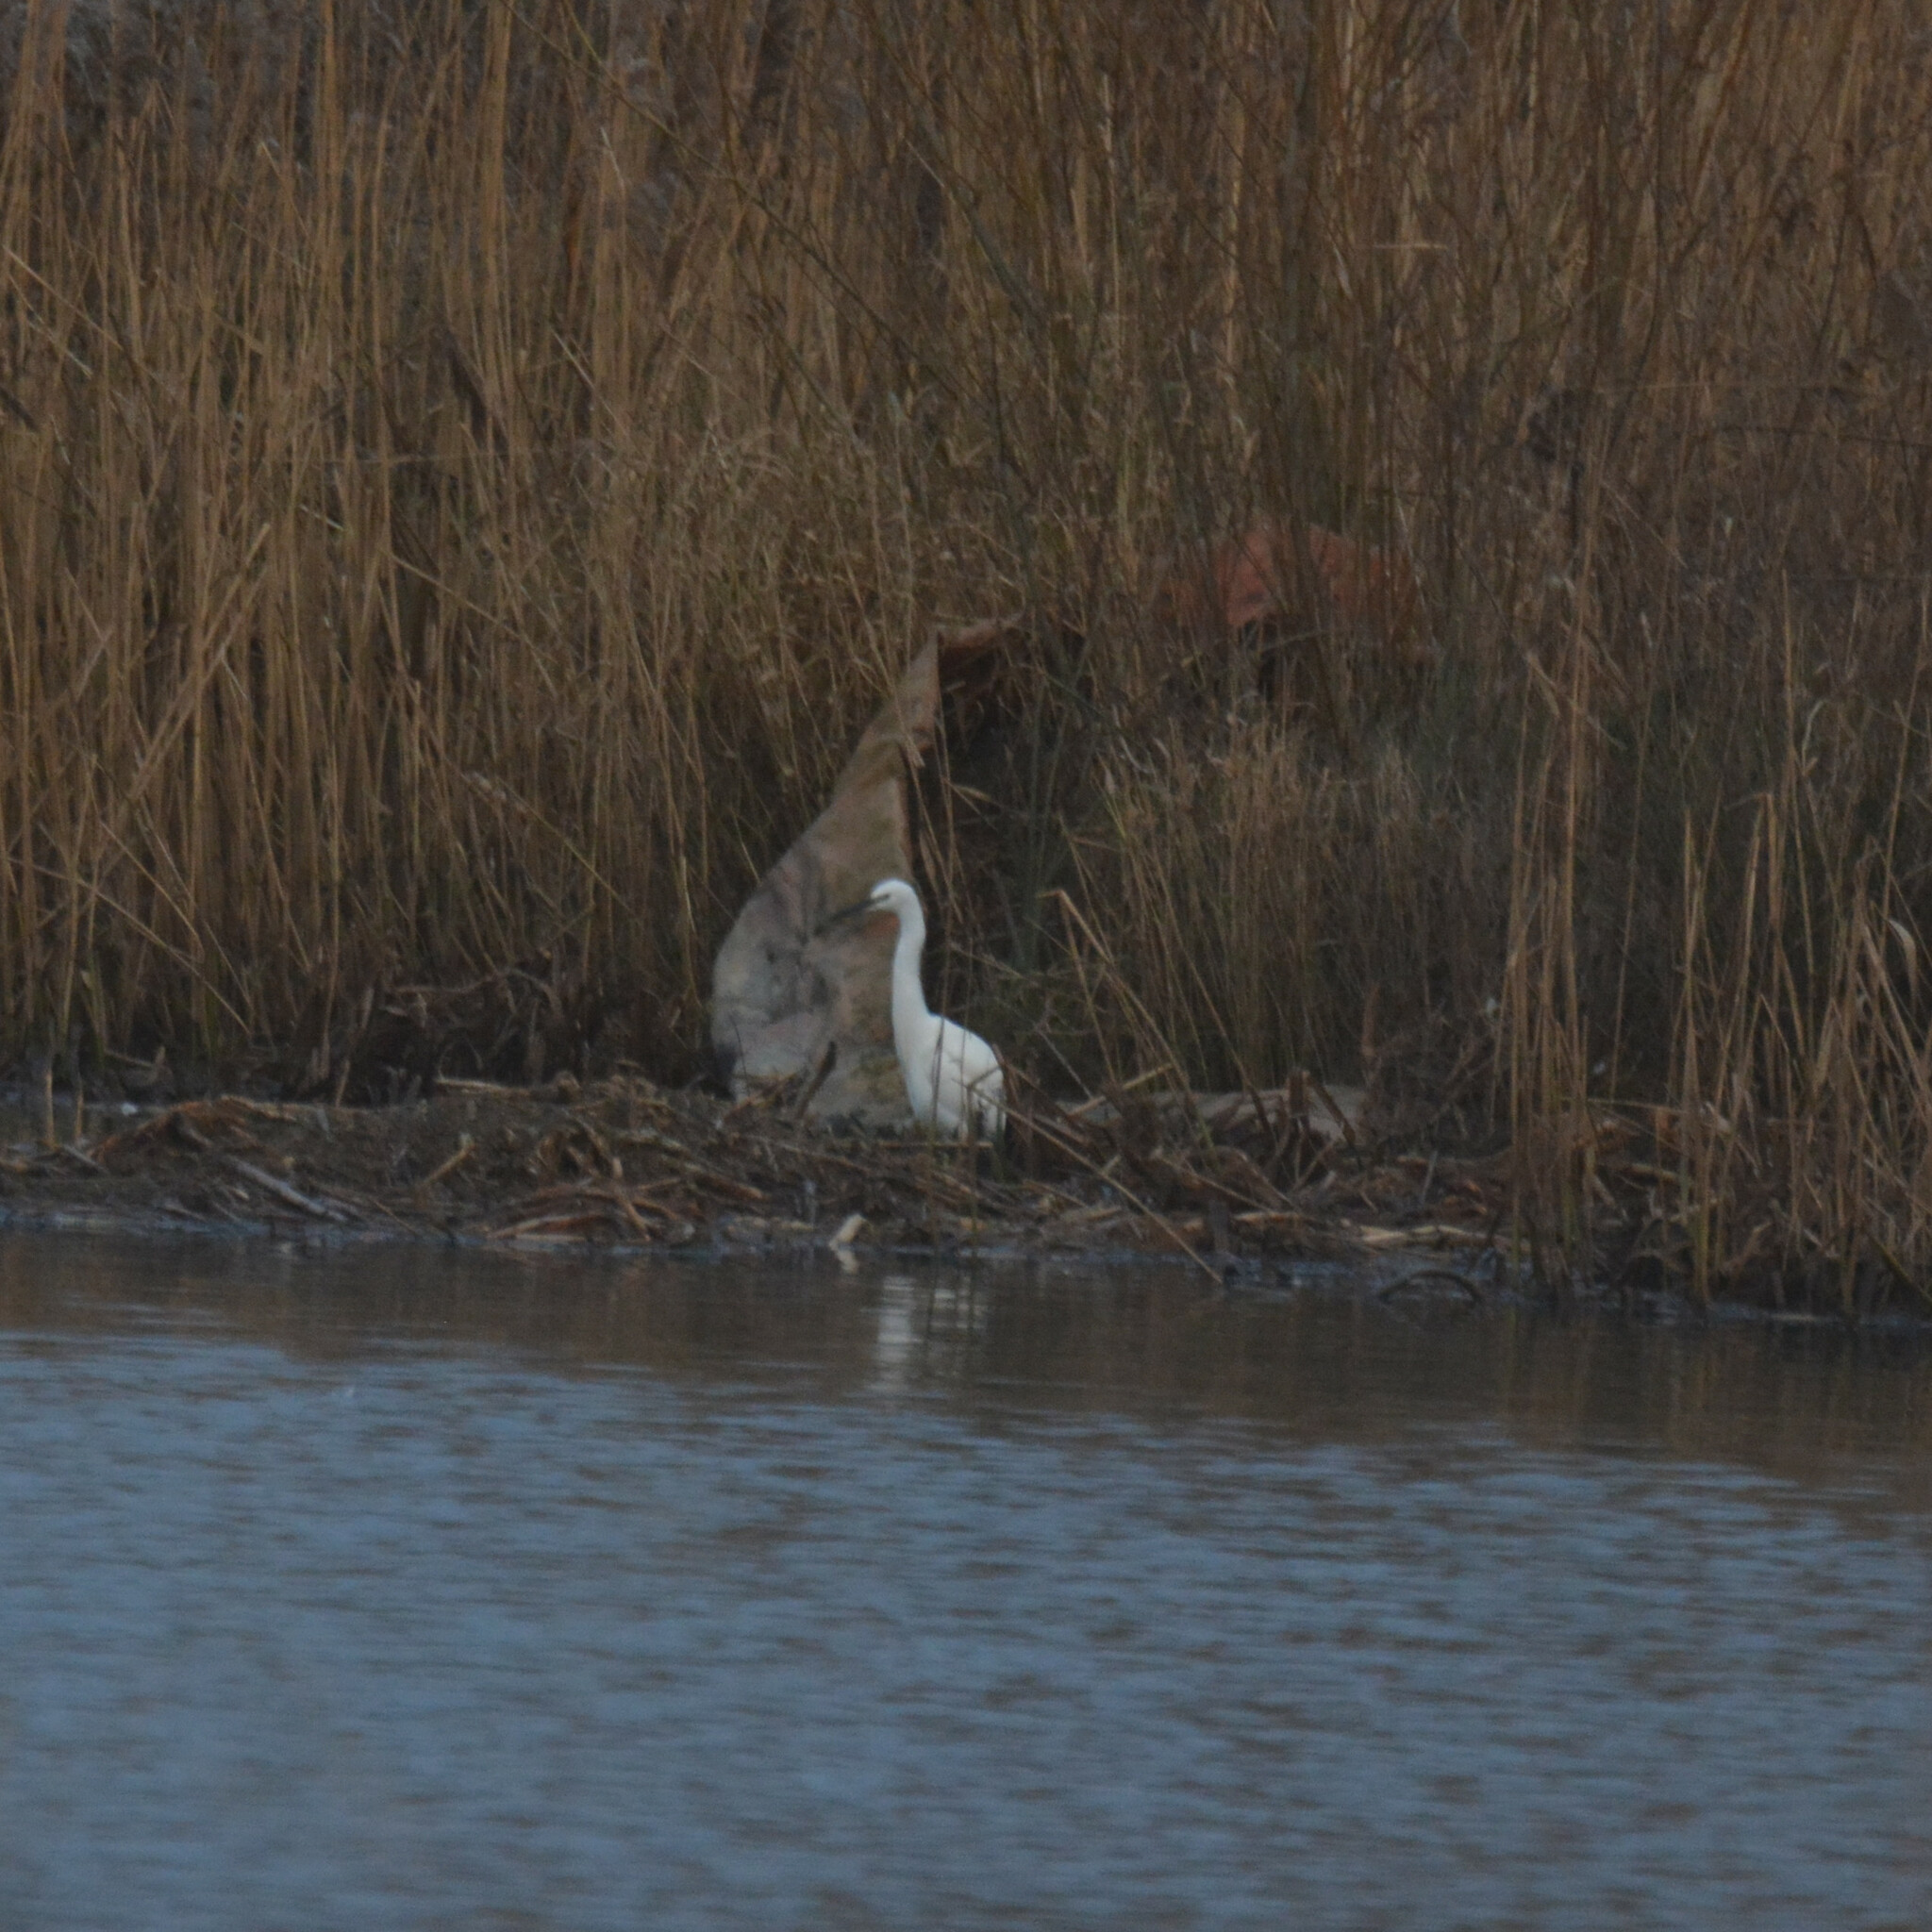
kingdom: Animalia
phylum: Chordata
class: Aves
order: Pelecaniformes
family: Ardeidae
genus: Egretta
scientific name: Egretta garzetta
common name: Little egret
